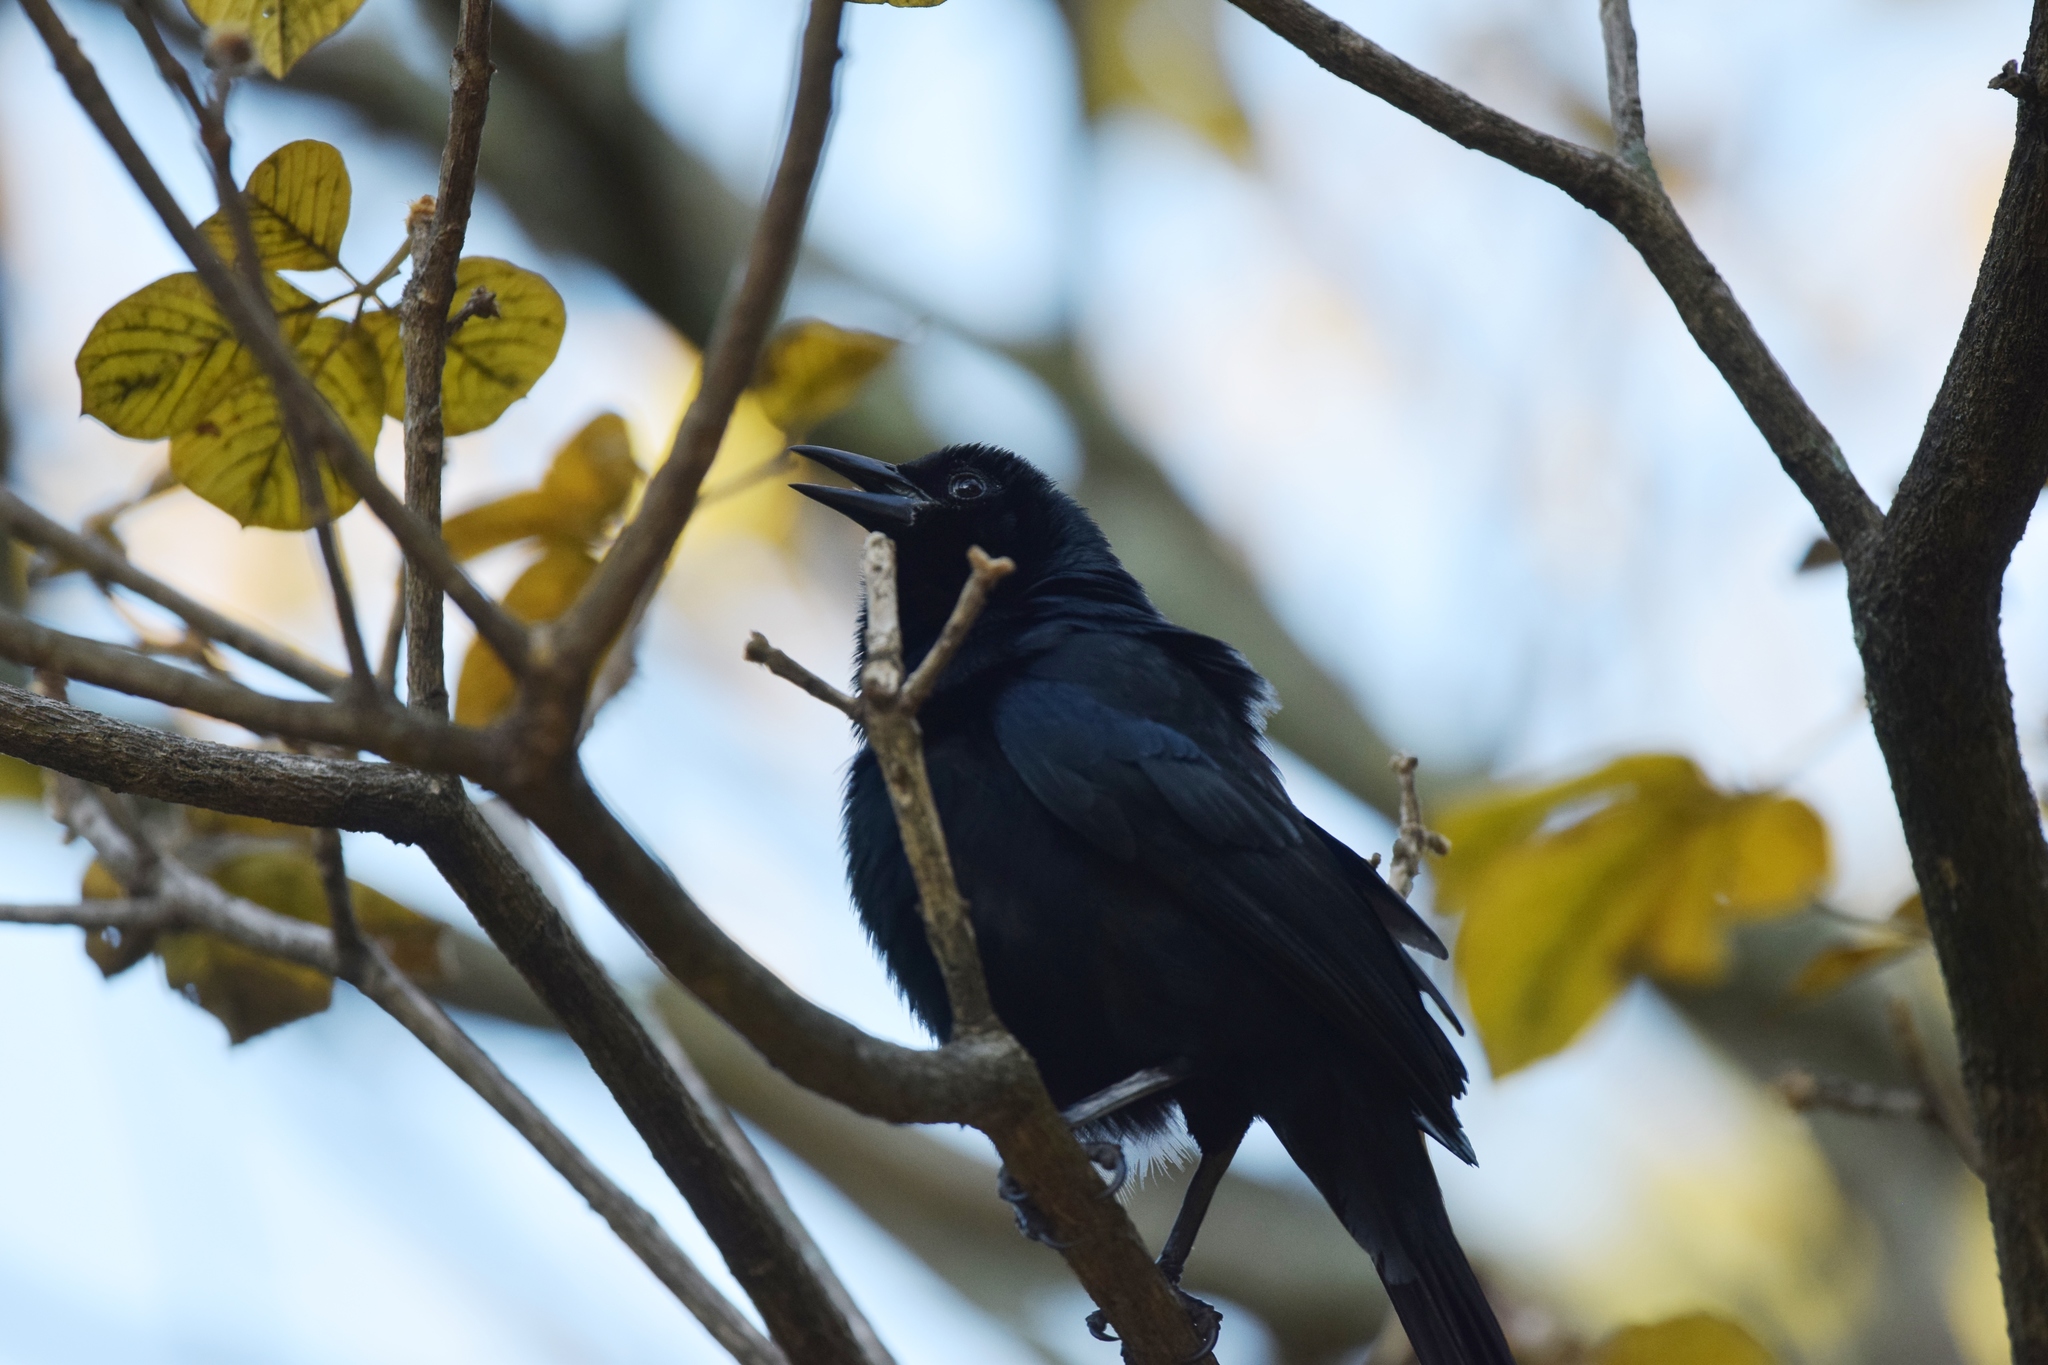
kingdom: Animalia
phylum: Chordata
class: Aves
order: Passeriformes
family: Icteridae
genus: Dives
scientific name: Dives dives
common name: Melodious blackbird
